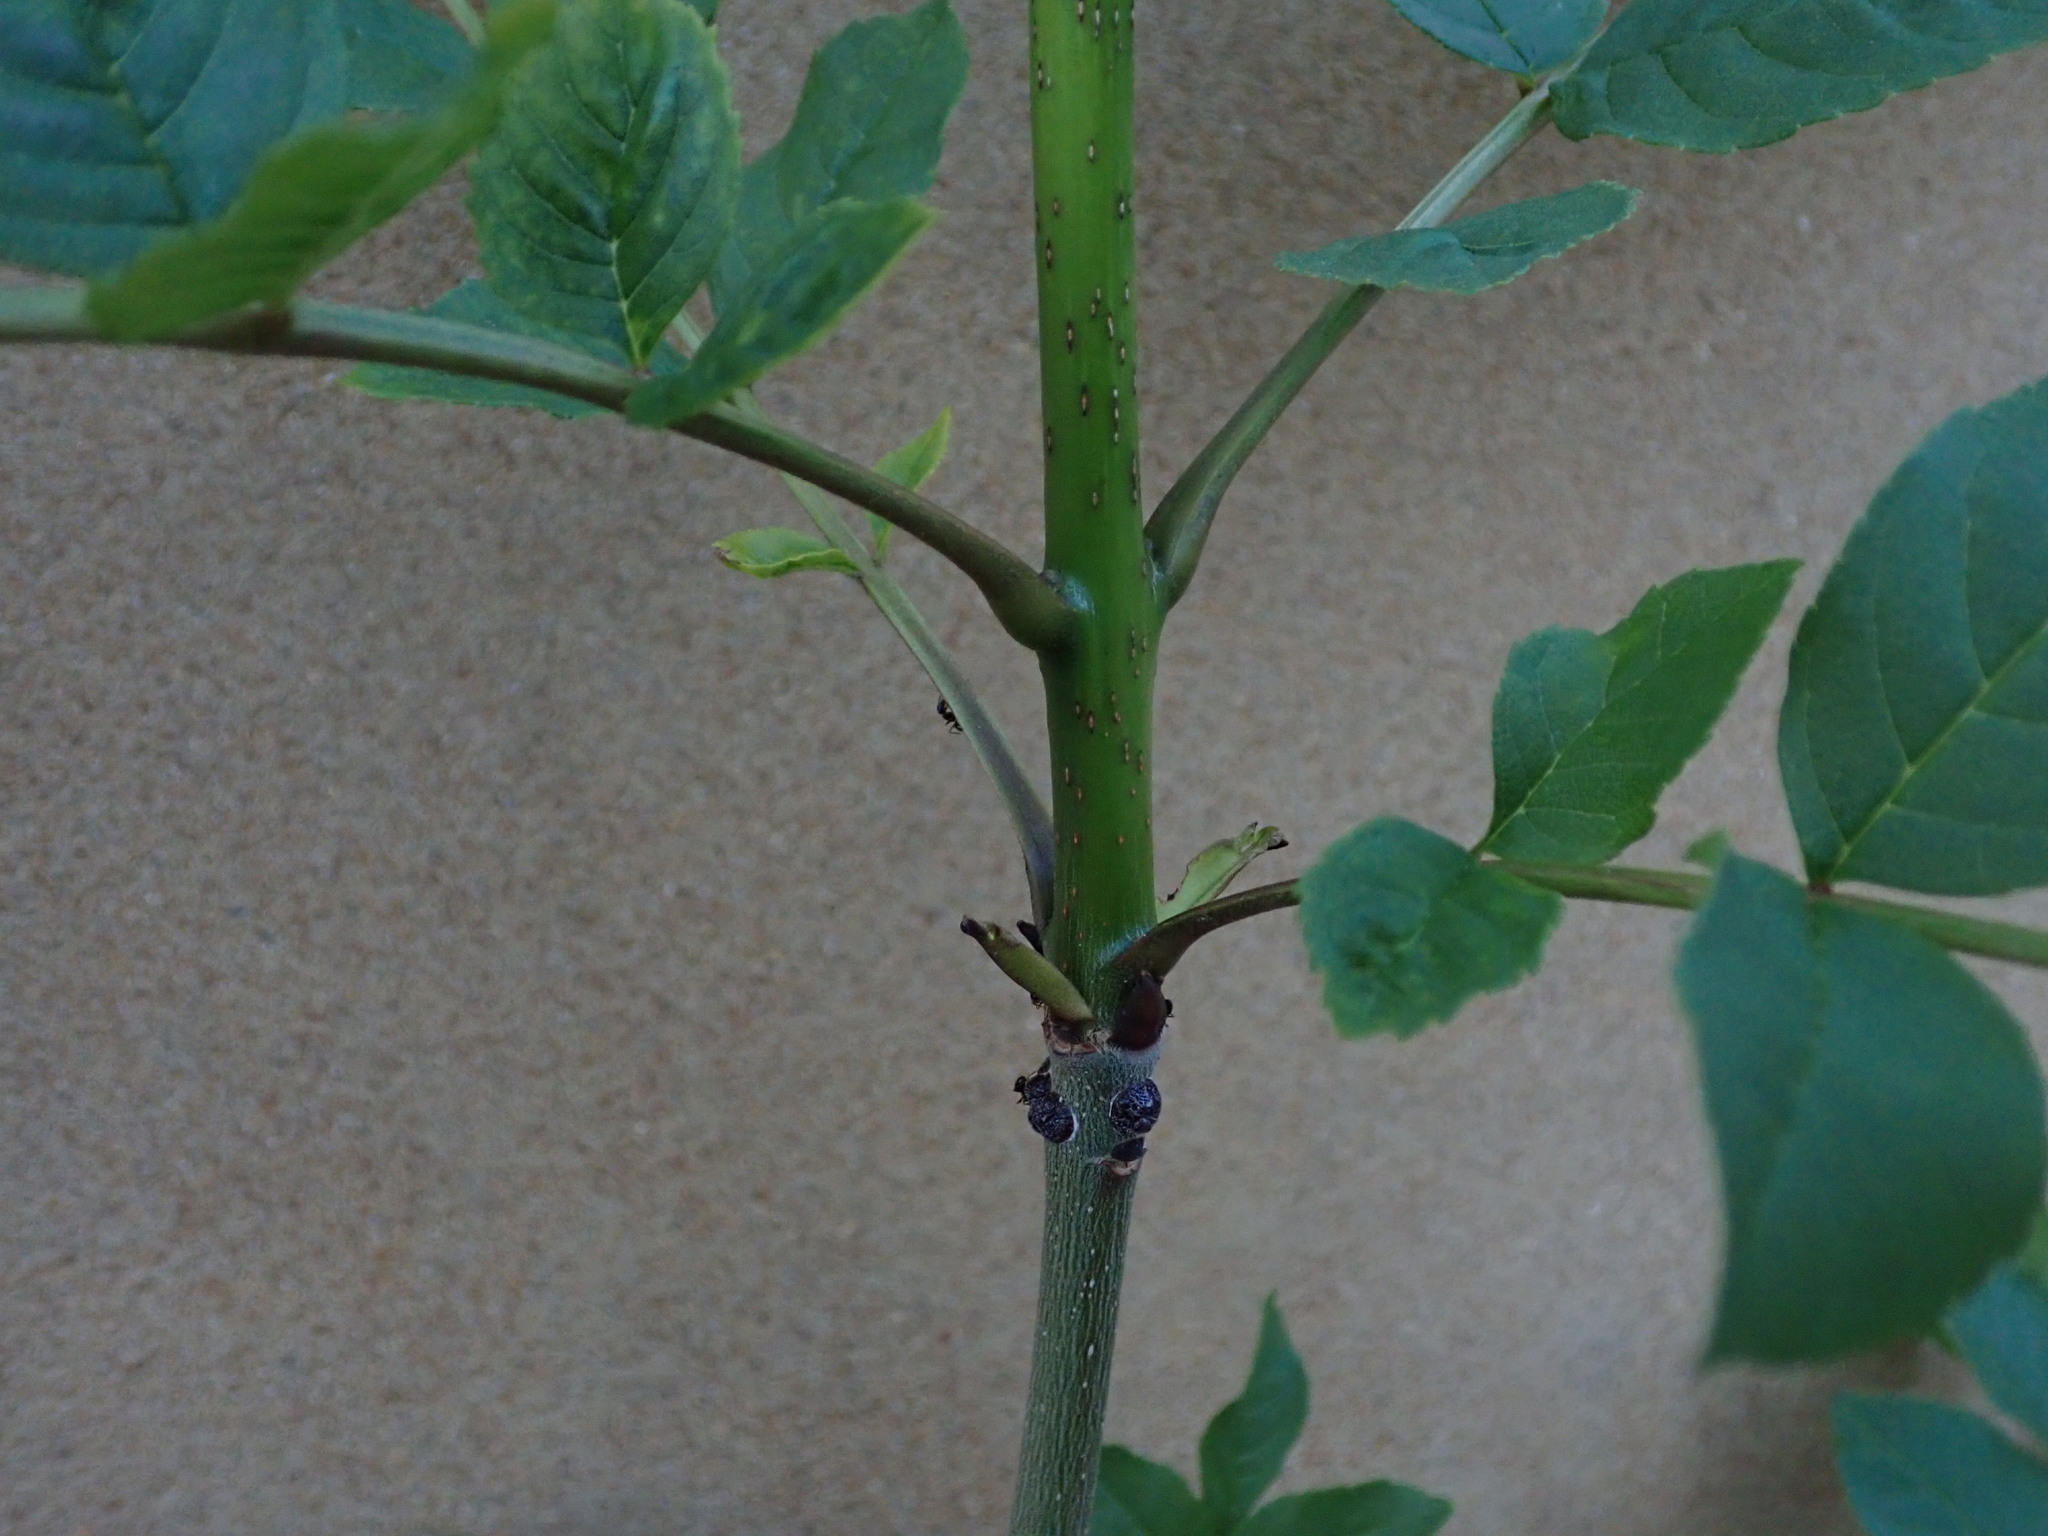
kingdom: Plantae
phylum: Tracheophyta
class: Magnoliopsida
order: Lamiales
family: Oleaceae
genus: Fraxinus
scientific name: Fraxinus excelsior
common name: European ash
